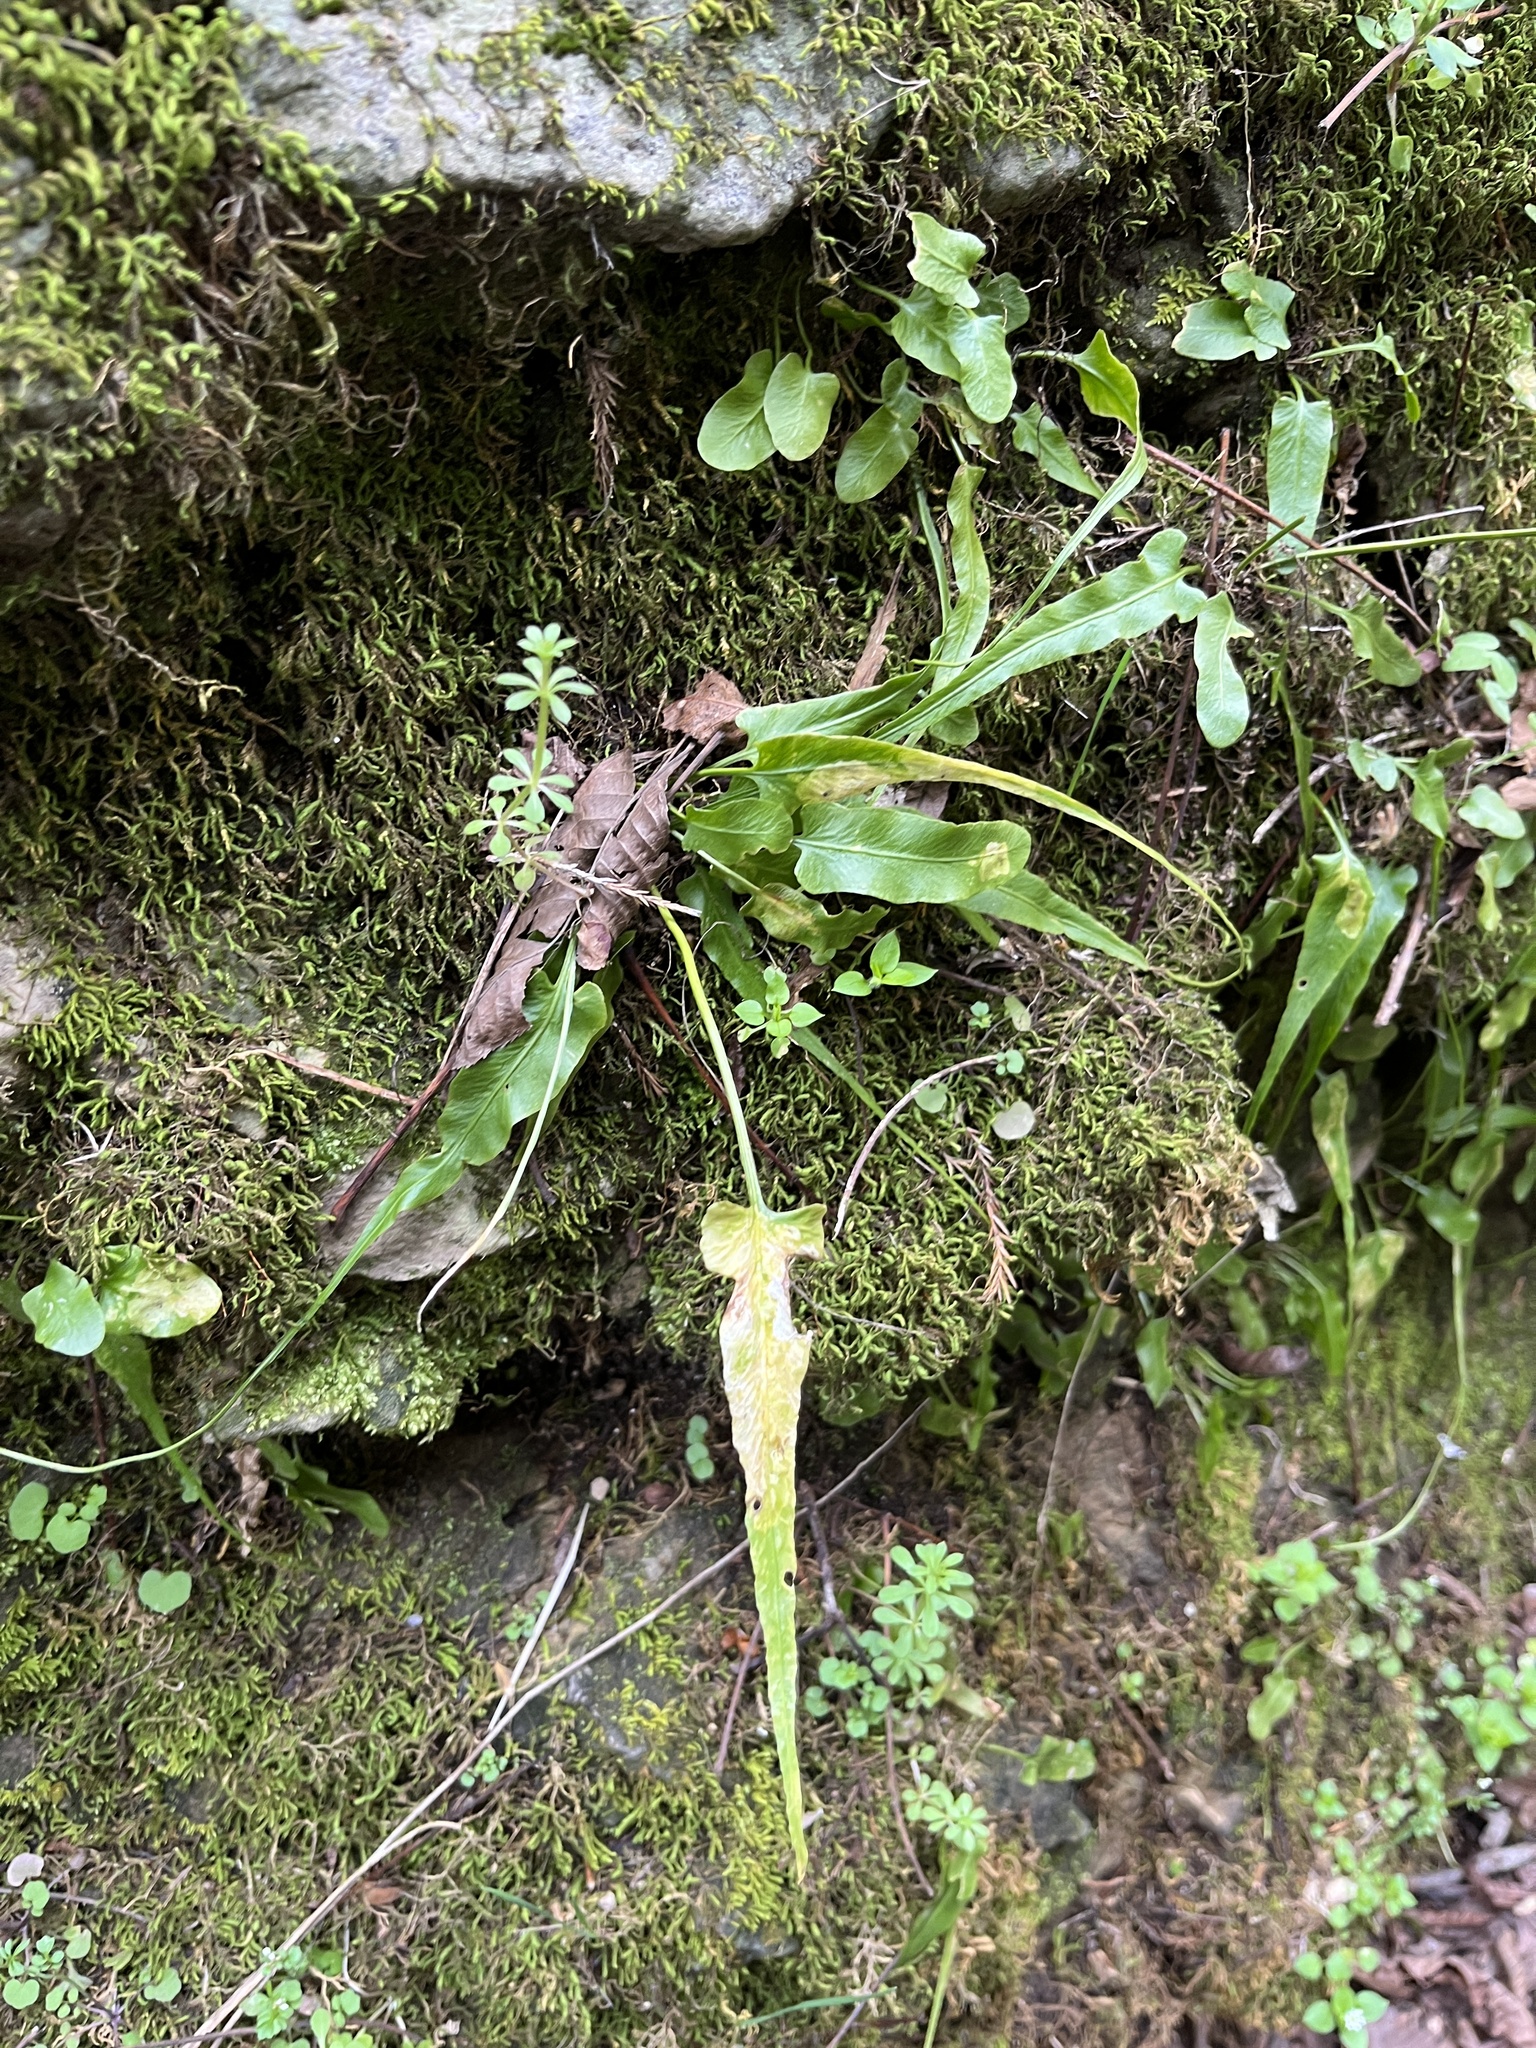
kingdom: Plantae
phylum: Tracheophyta
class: Polypodiopsida
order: Polypodiales
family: Aspleniaceae
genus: Asplenium
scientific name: Asplenium rhizophyllum
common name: Walking fern
